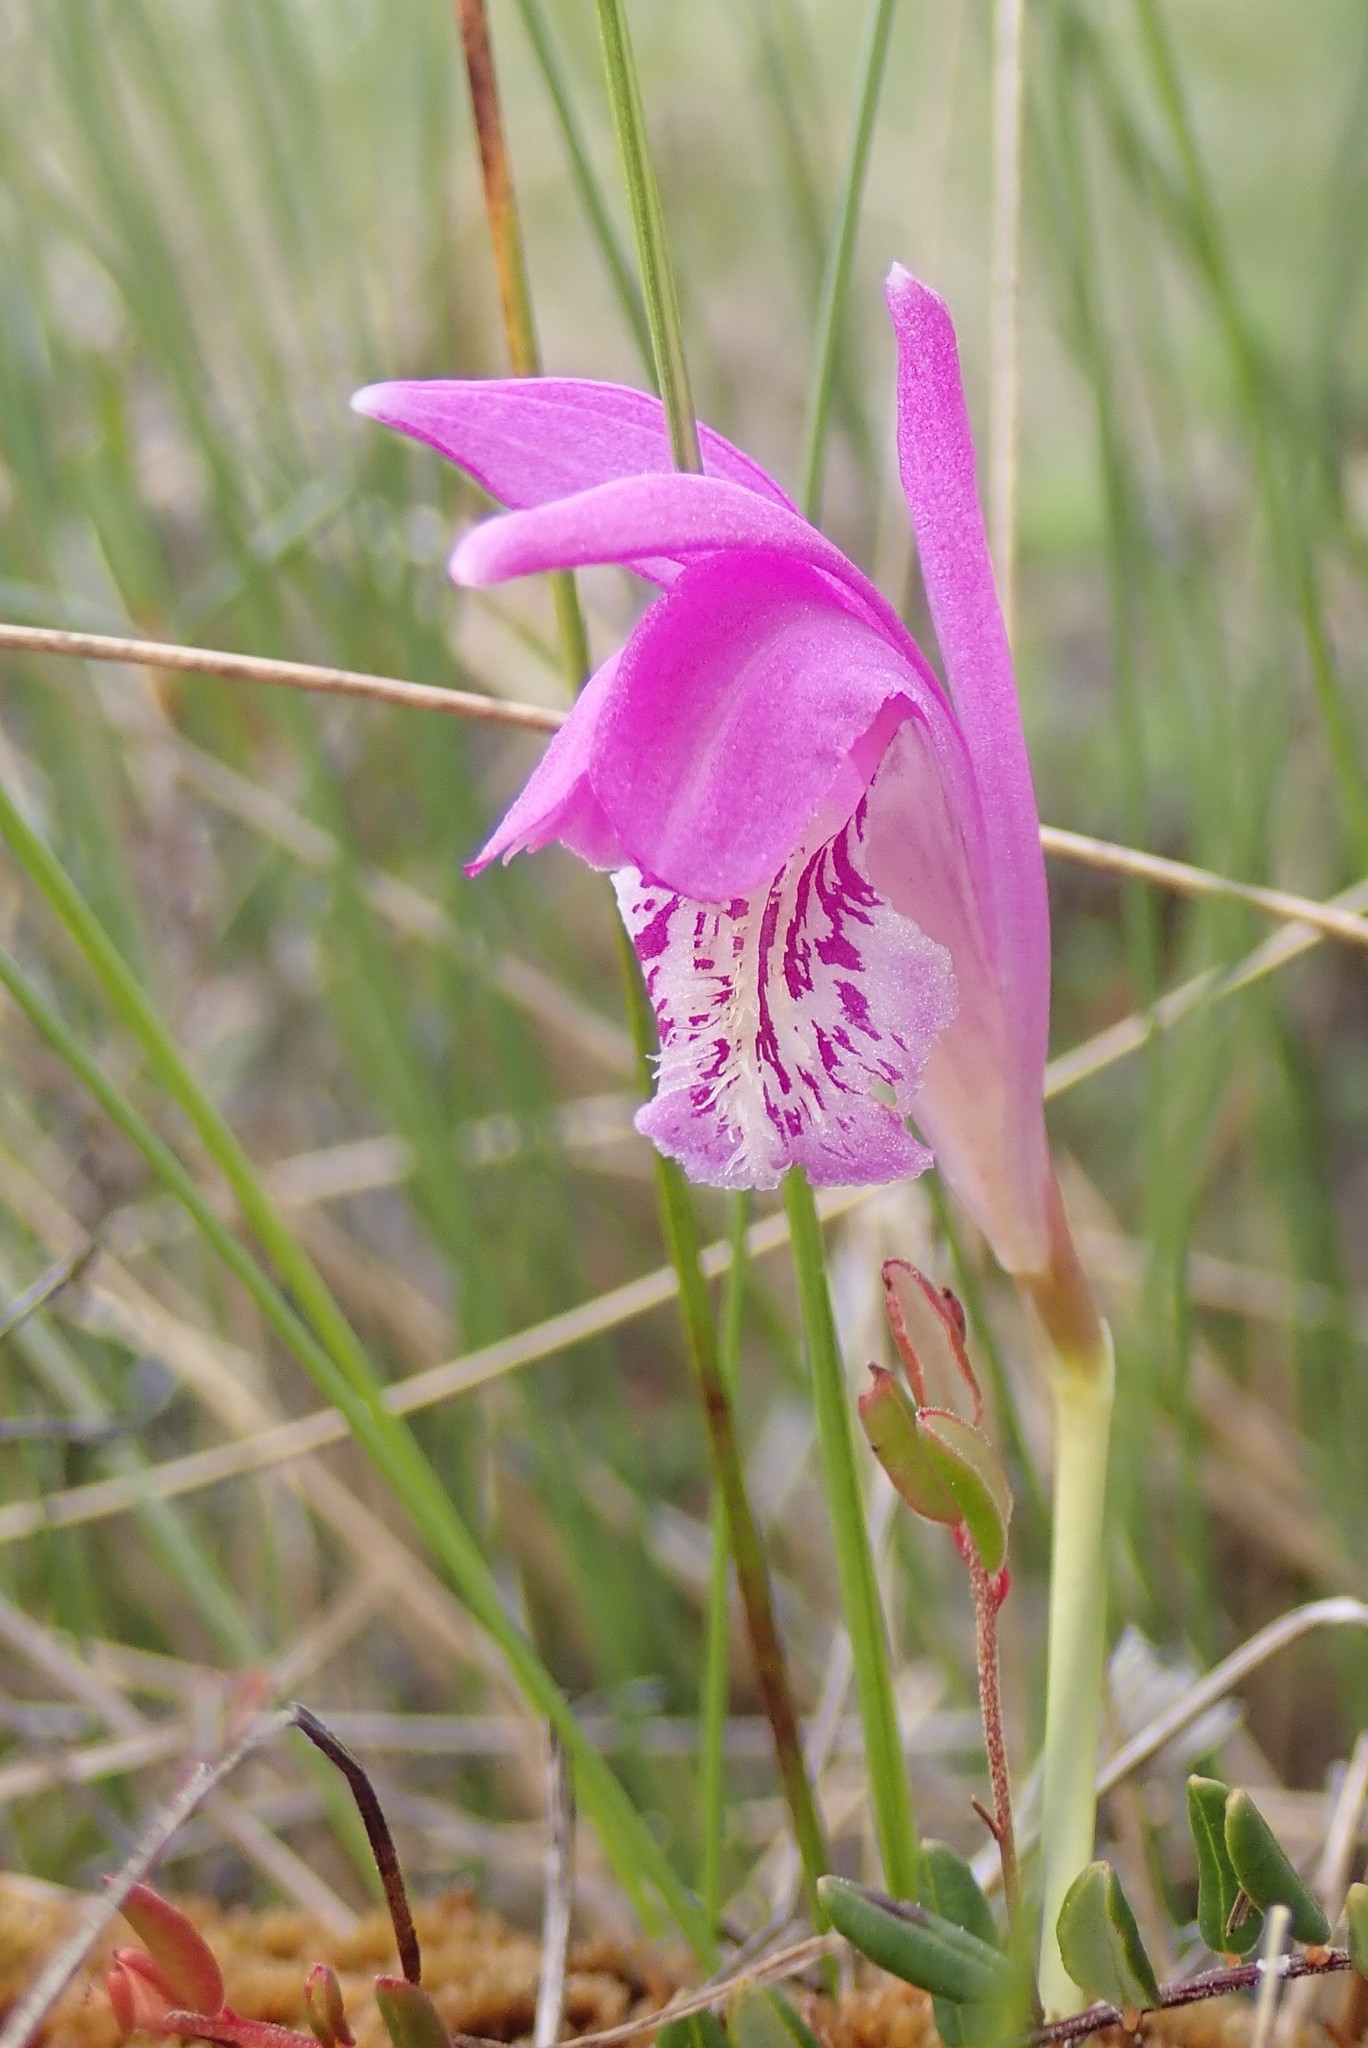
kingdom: Plantae
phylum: Tracheophyta
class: Liliopsida
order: Asparagales
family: Orchidaceae
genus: Arethusa
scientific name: Arethusa bulbosa
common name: Arethusa
